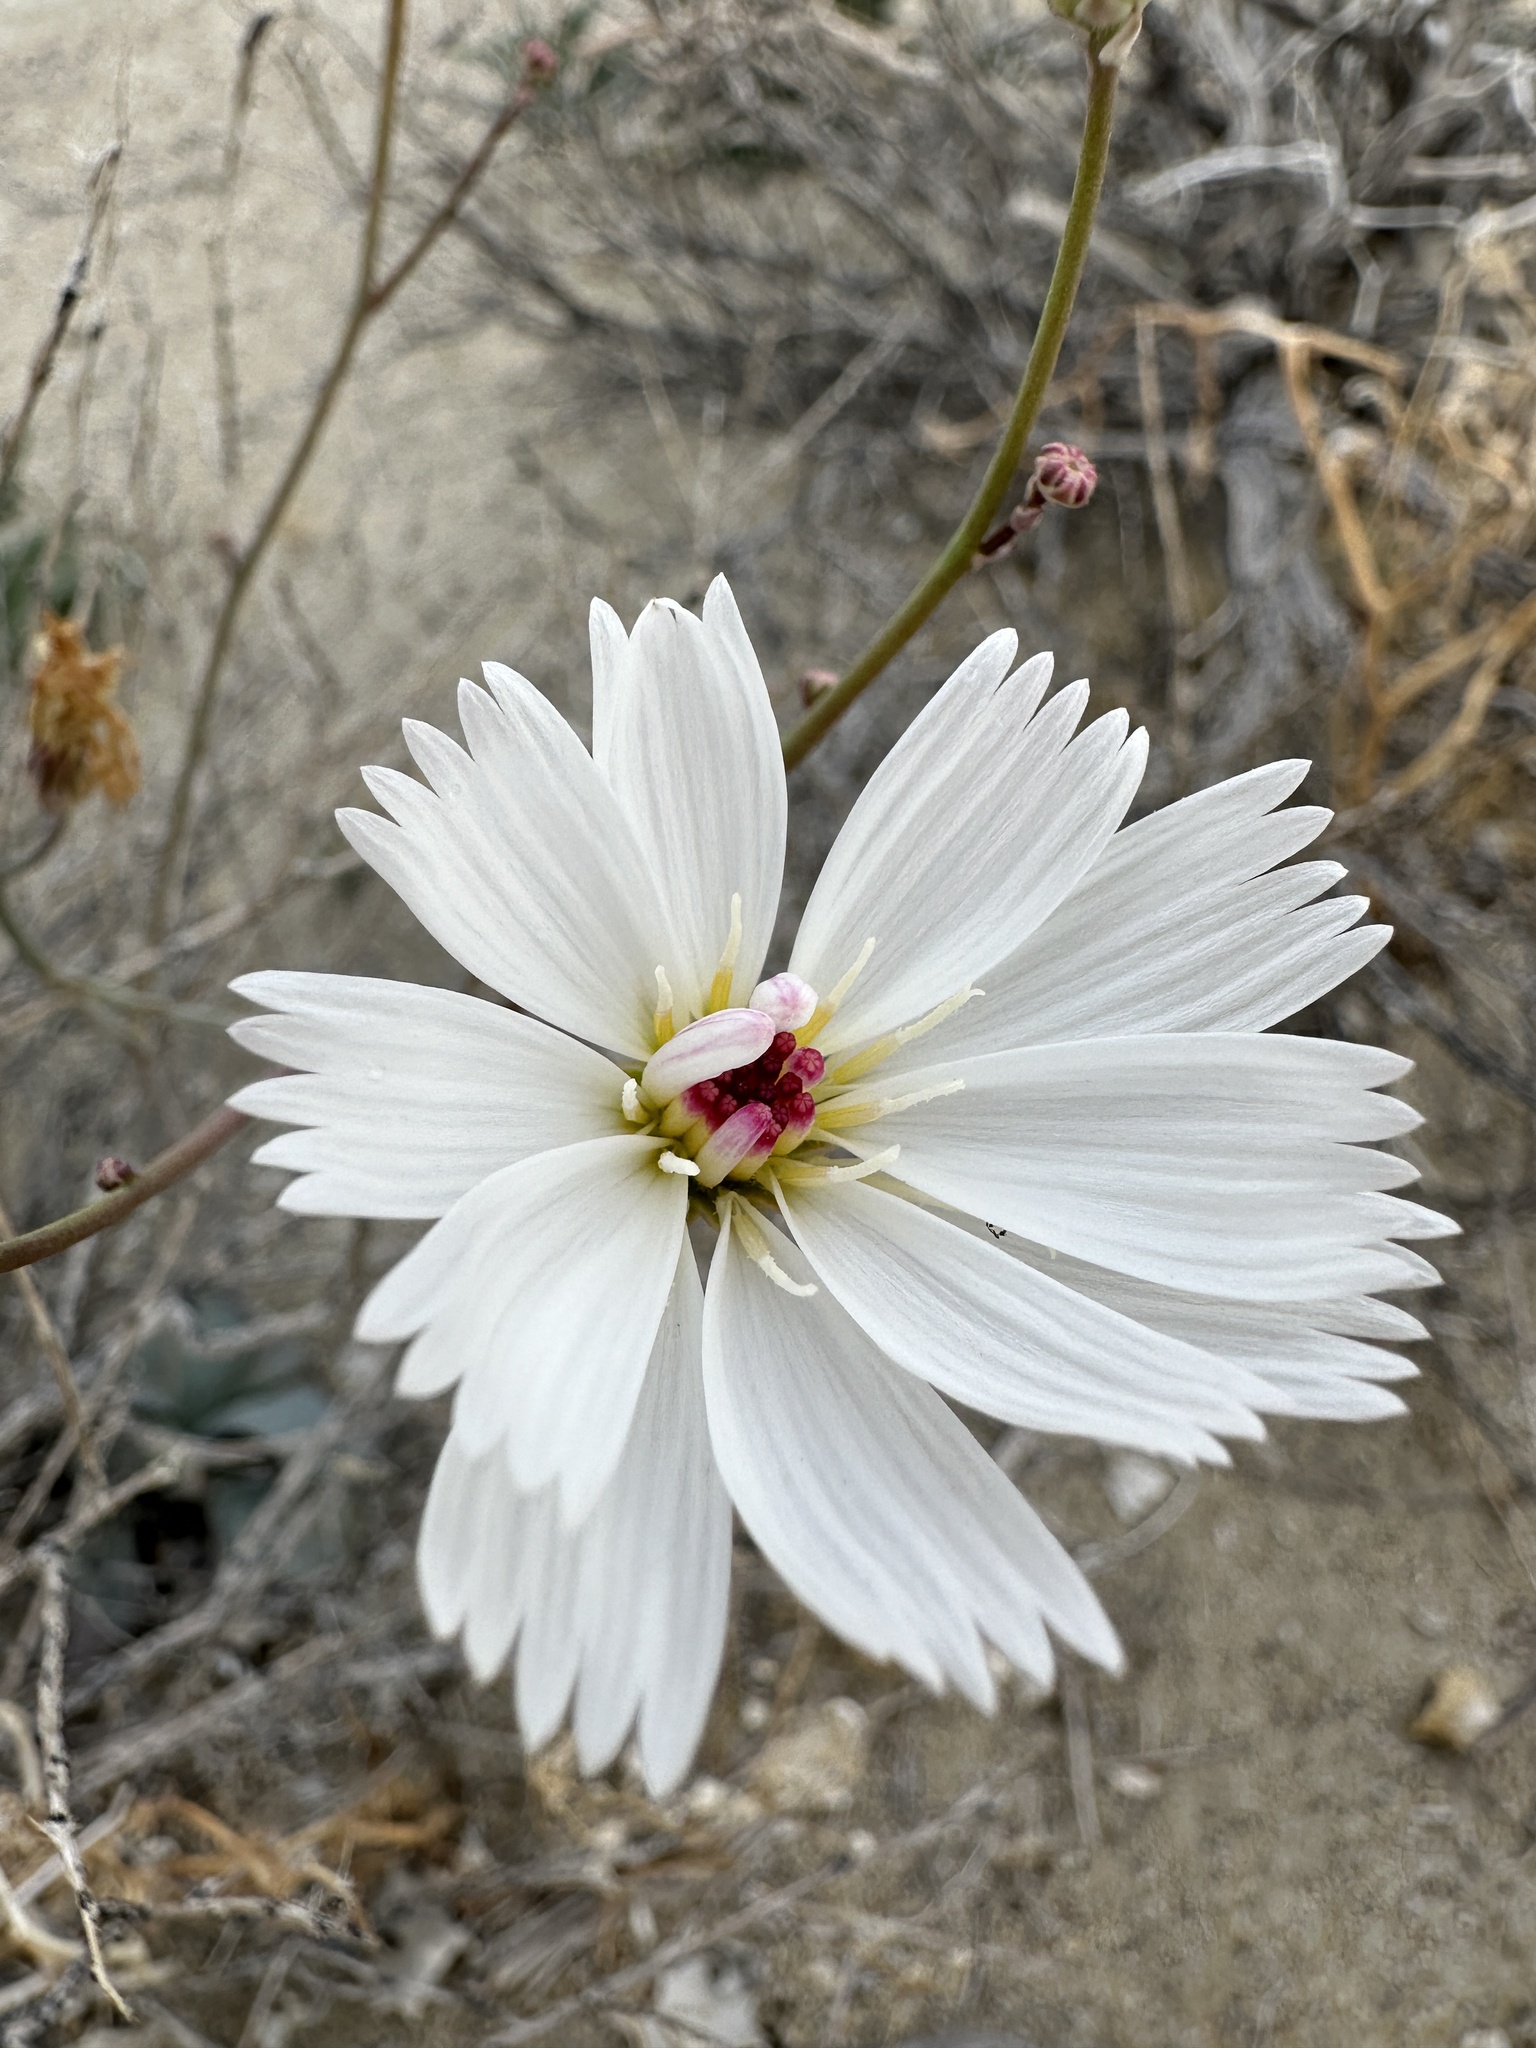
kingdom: Plantae
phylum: Tracheophyta
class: Magnoliopsida
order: Asterales
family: Asteraceae
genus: Atrichoseris
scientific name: Atrichoseris platyphylla
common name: Tobaccoweed
